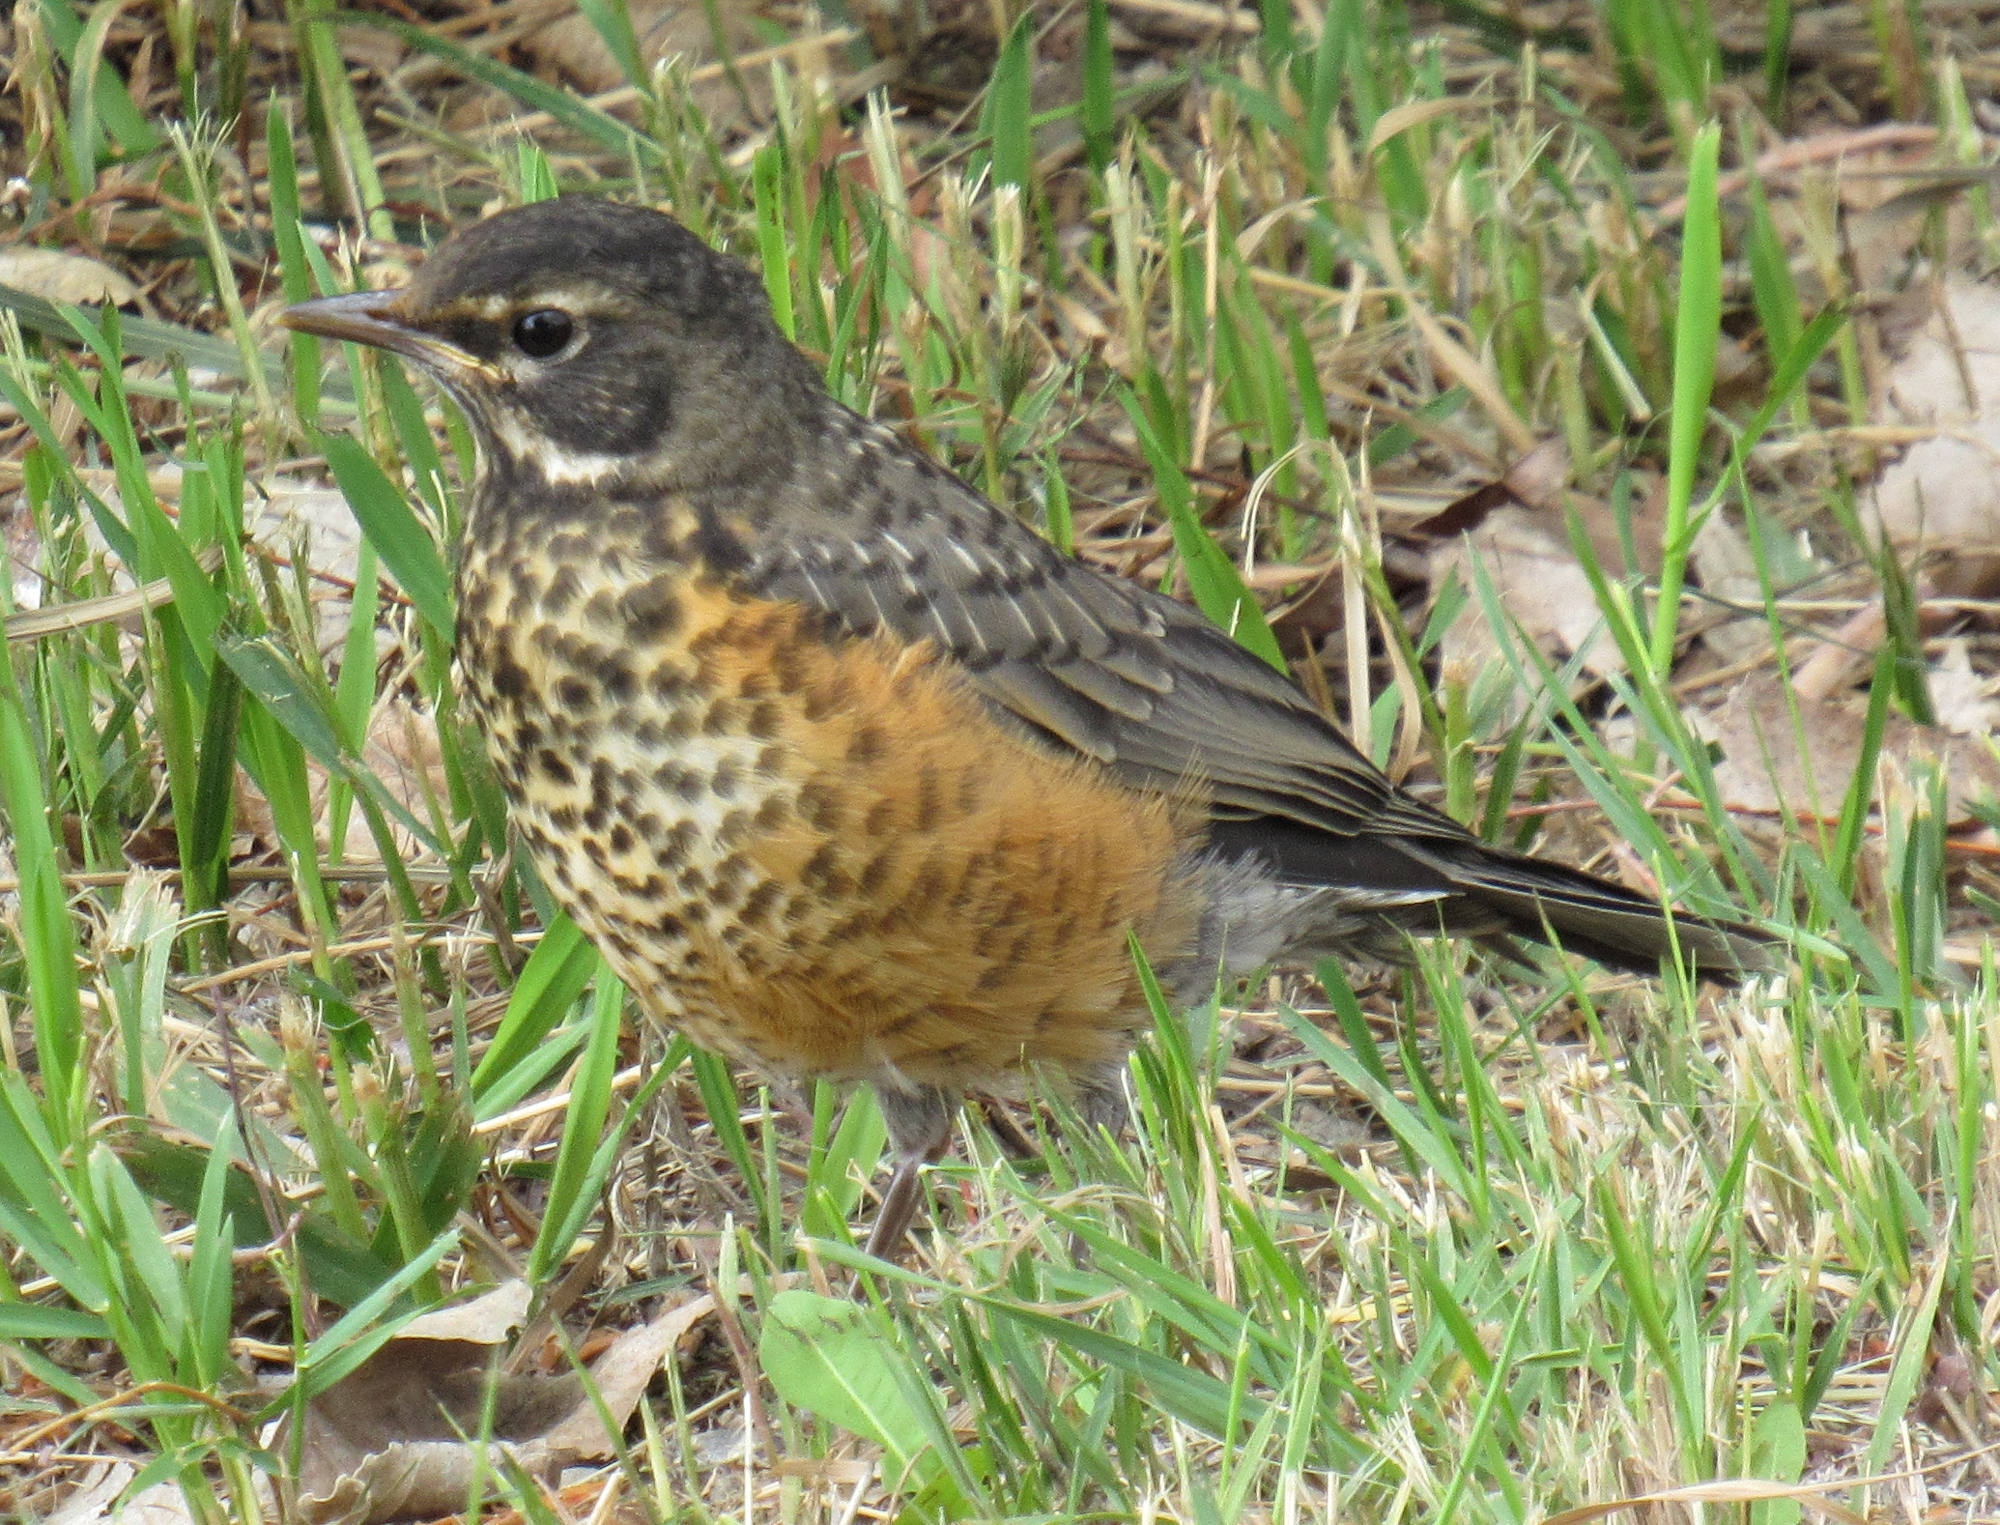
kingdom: Animalia
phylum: Chordata
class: Aves
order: Passeriformes
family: Turdidae
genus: Turdus
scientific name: Turdus migratorius
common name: American robin
